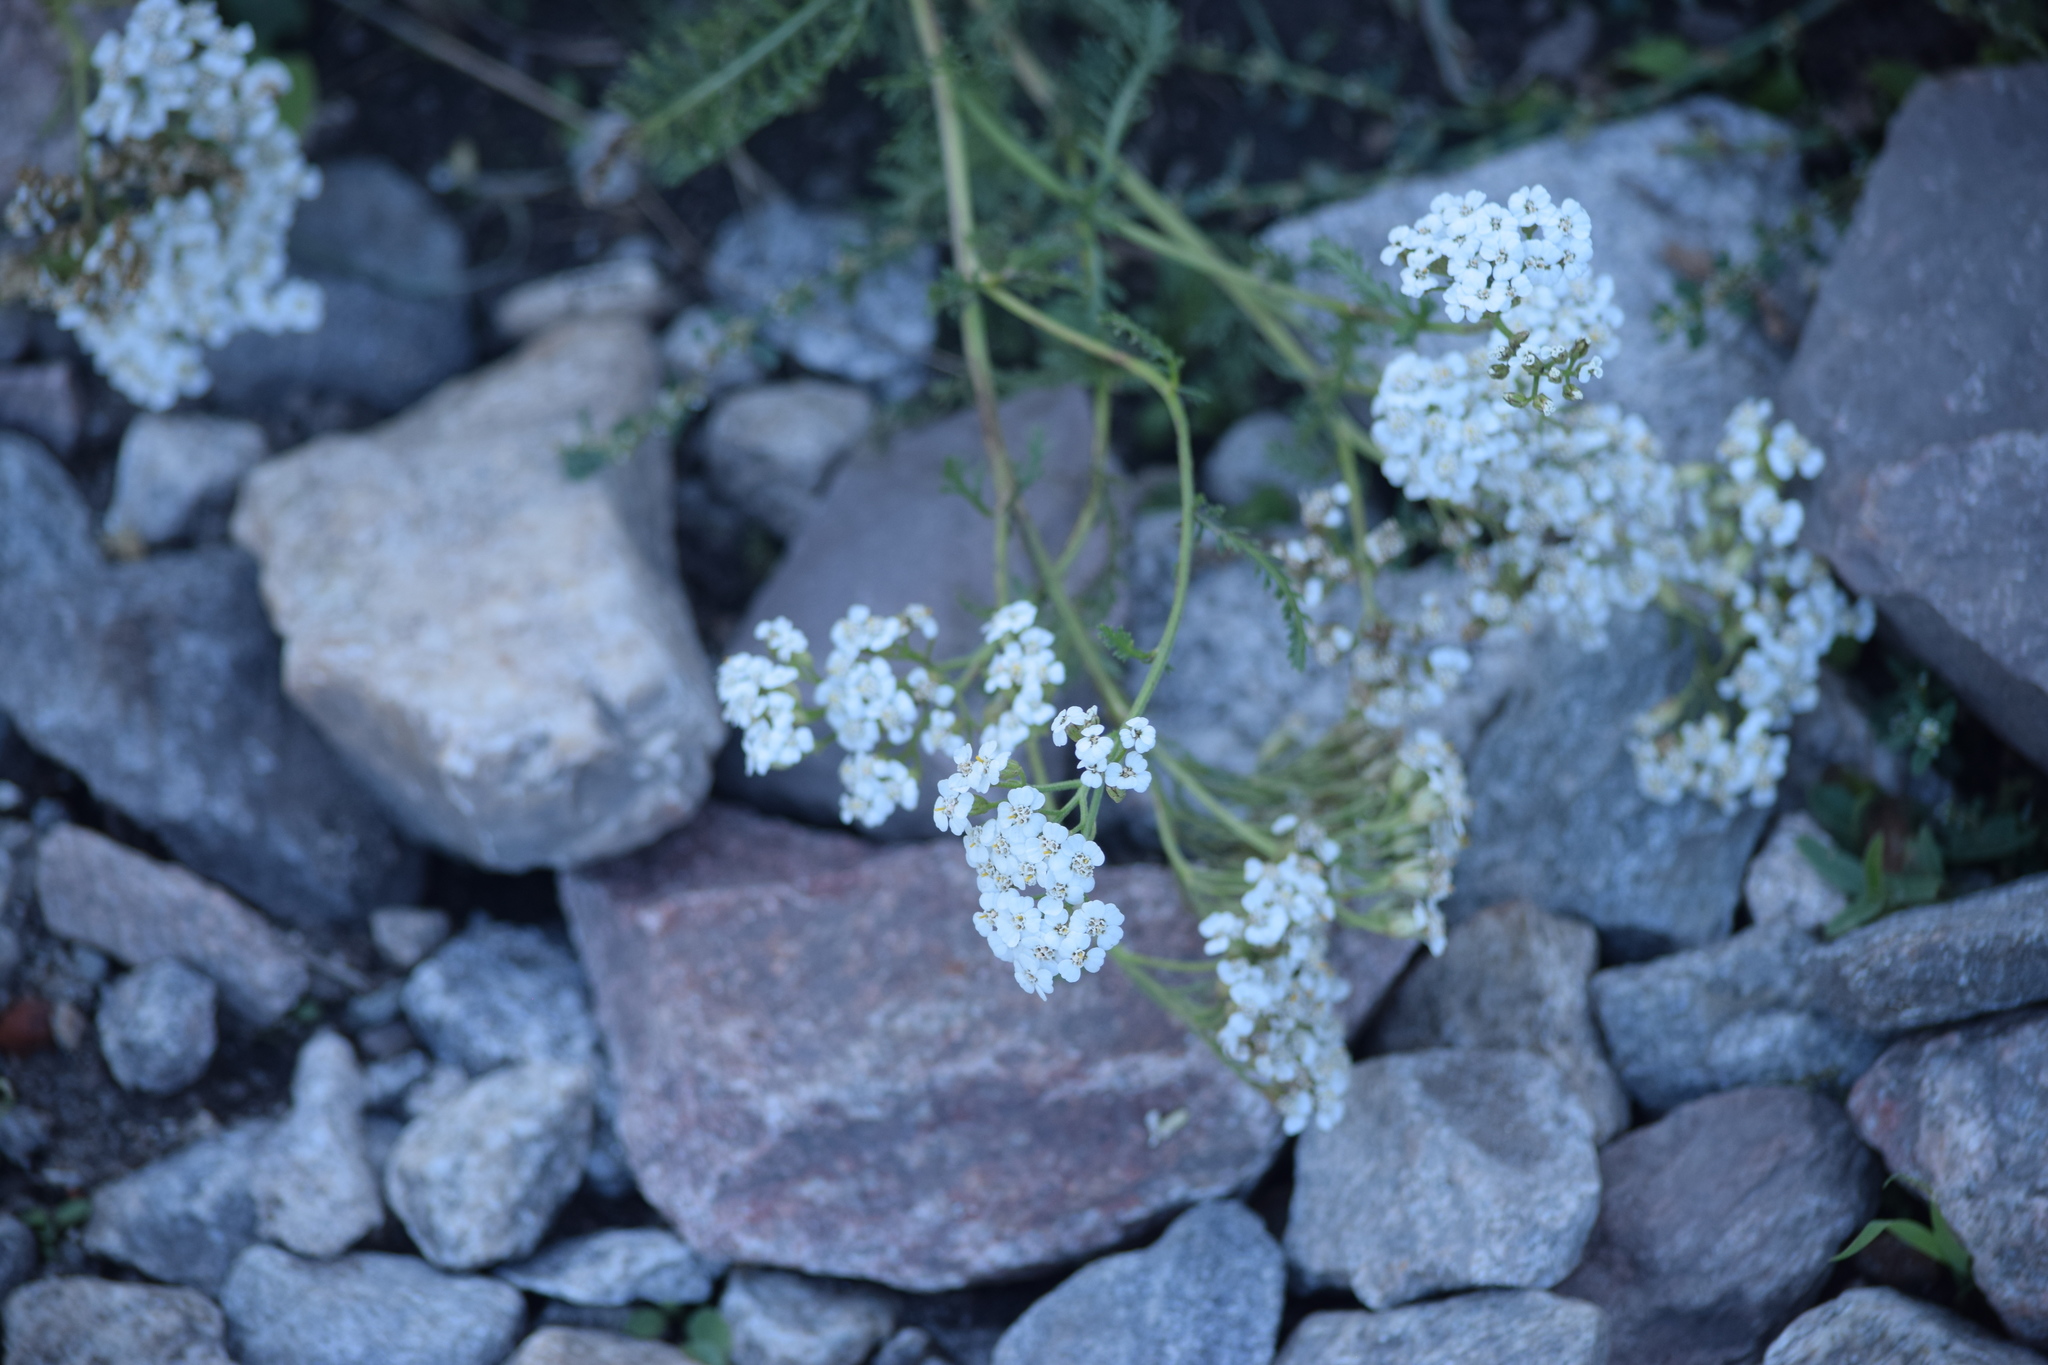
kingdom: Plantae
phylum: Tracheophyta
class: Magnoliopsida
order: Asterales
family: Asteraceae
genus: Achillea
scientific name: Achillea millefolium
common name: Yarrow
